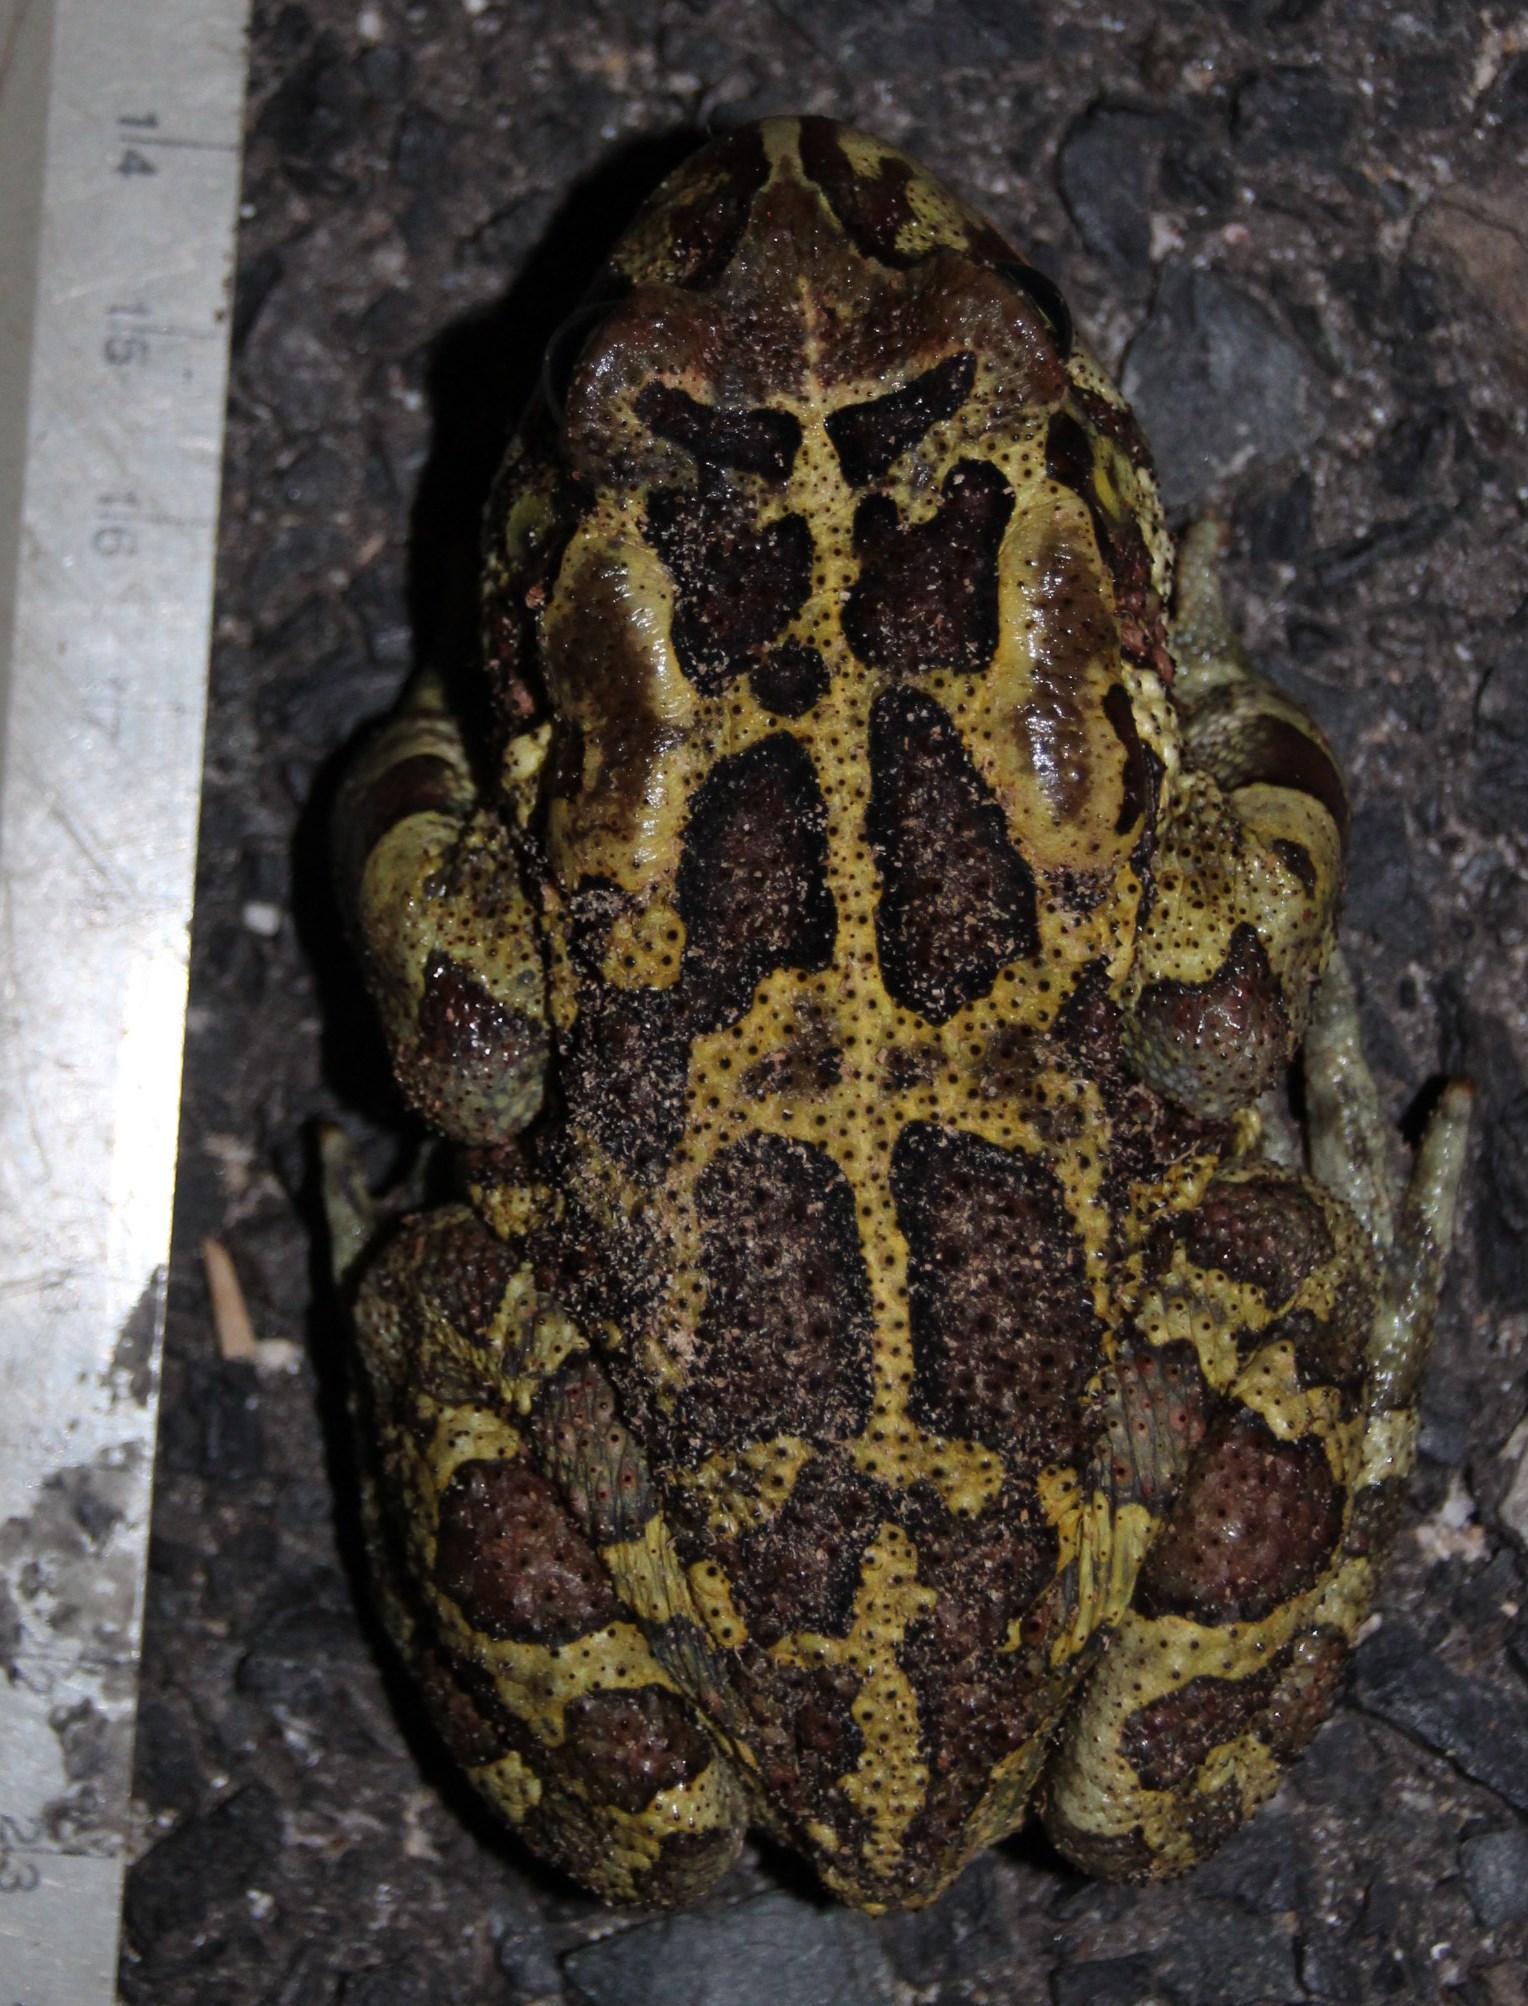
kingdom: Animalia
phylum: Chordata
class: Amphibia
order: Anura
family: Bufonidae
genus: Sclerophrys
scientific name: Sclerophrys pantherina
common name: Panther toad
